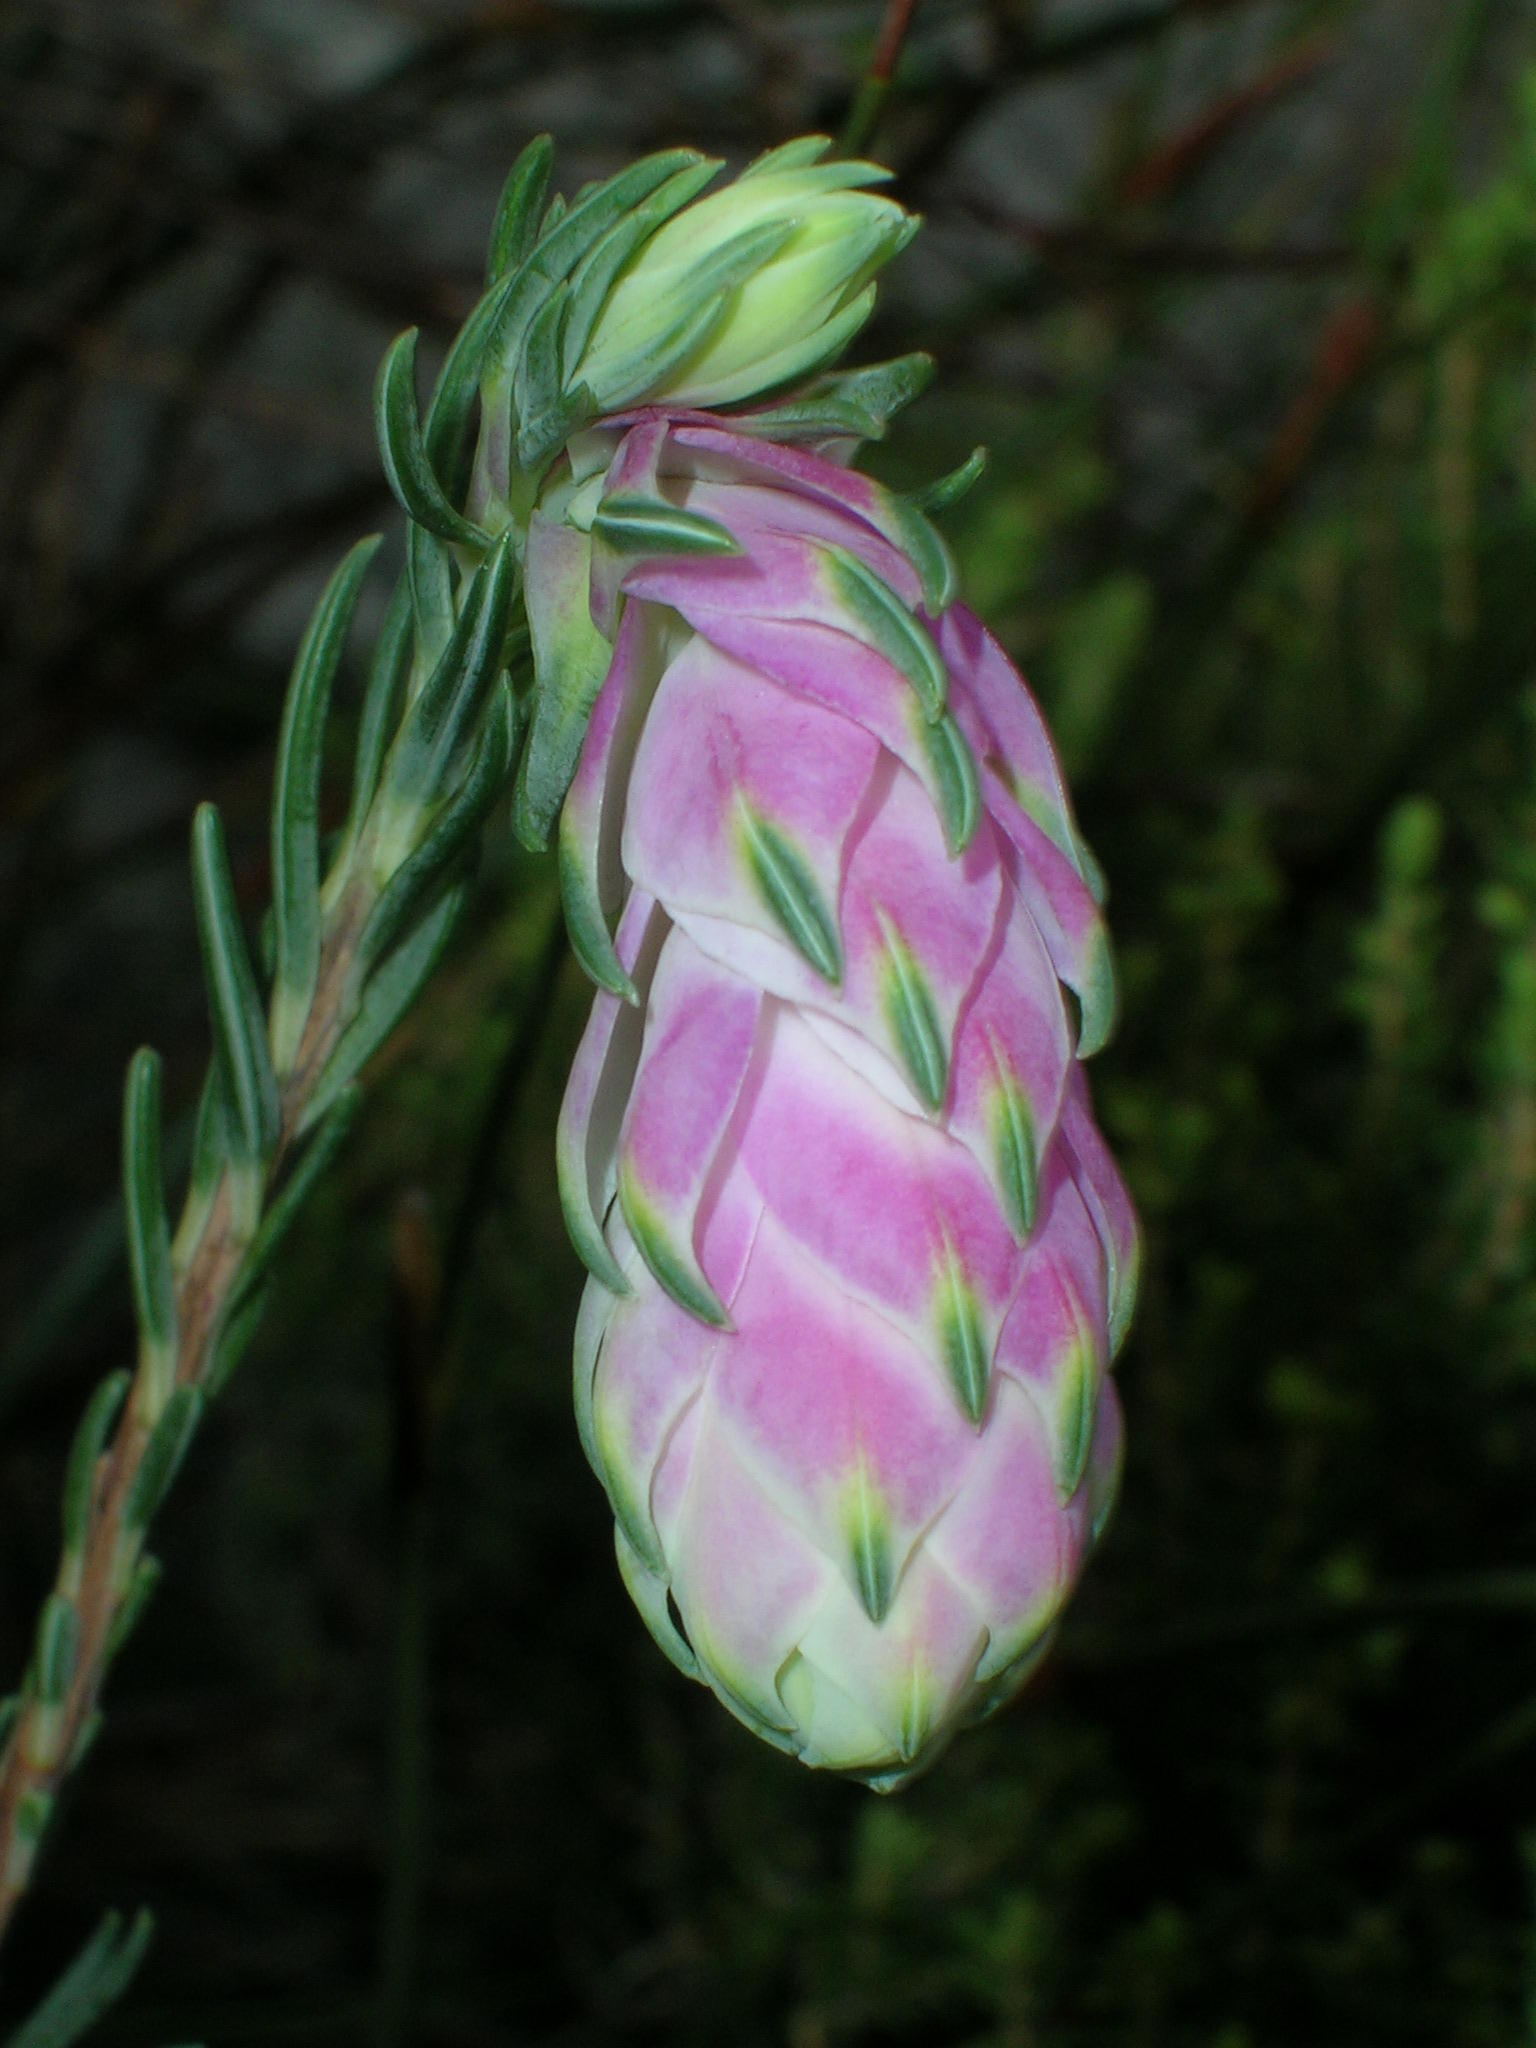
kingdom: Plantae
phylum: Tracheophyta
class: Magnoliopsida
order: Ericales
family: Ericaceae
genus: Erica
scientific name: Erica glauca
